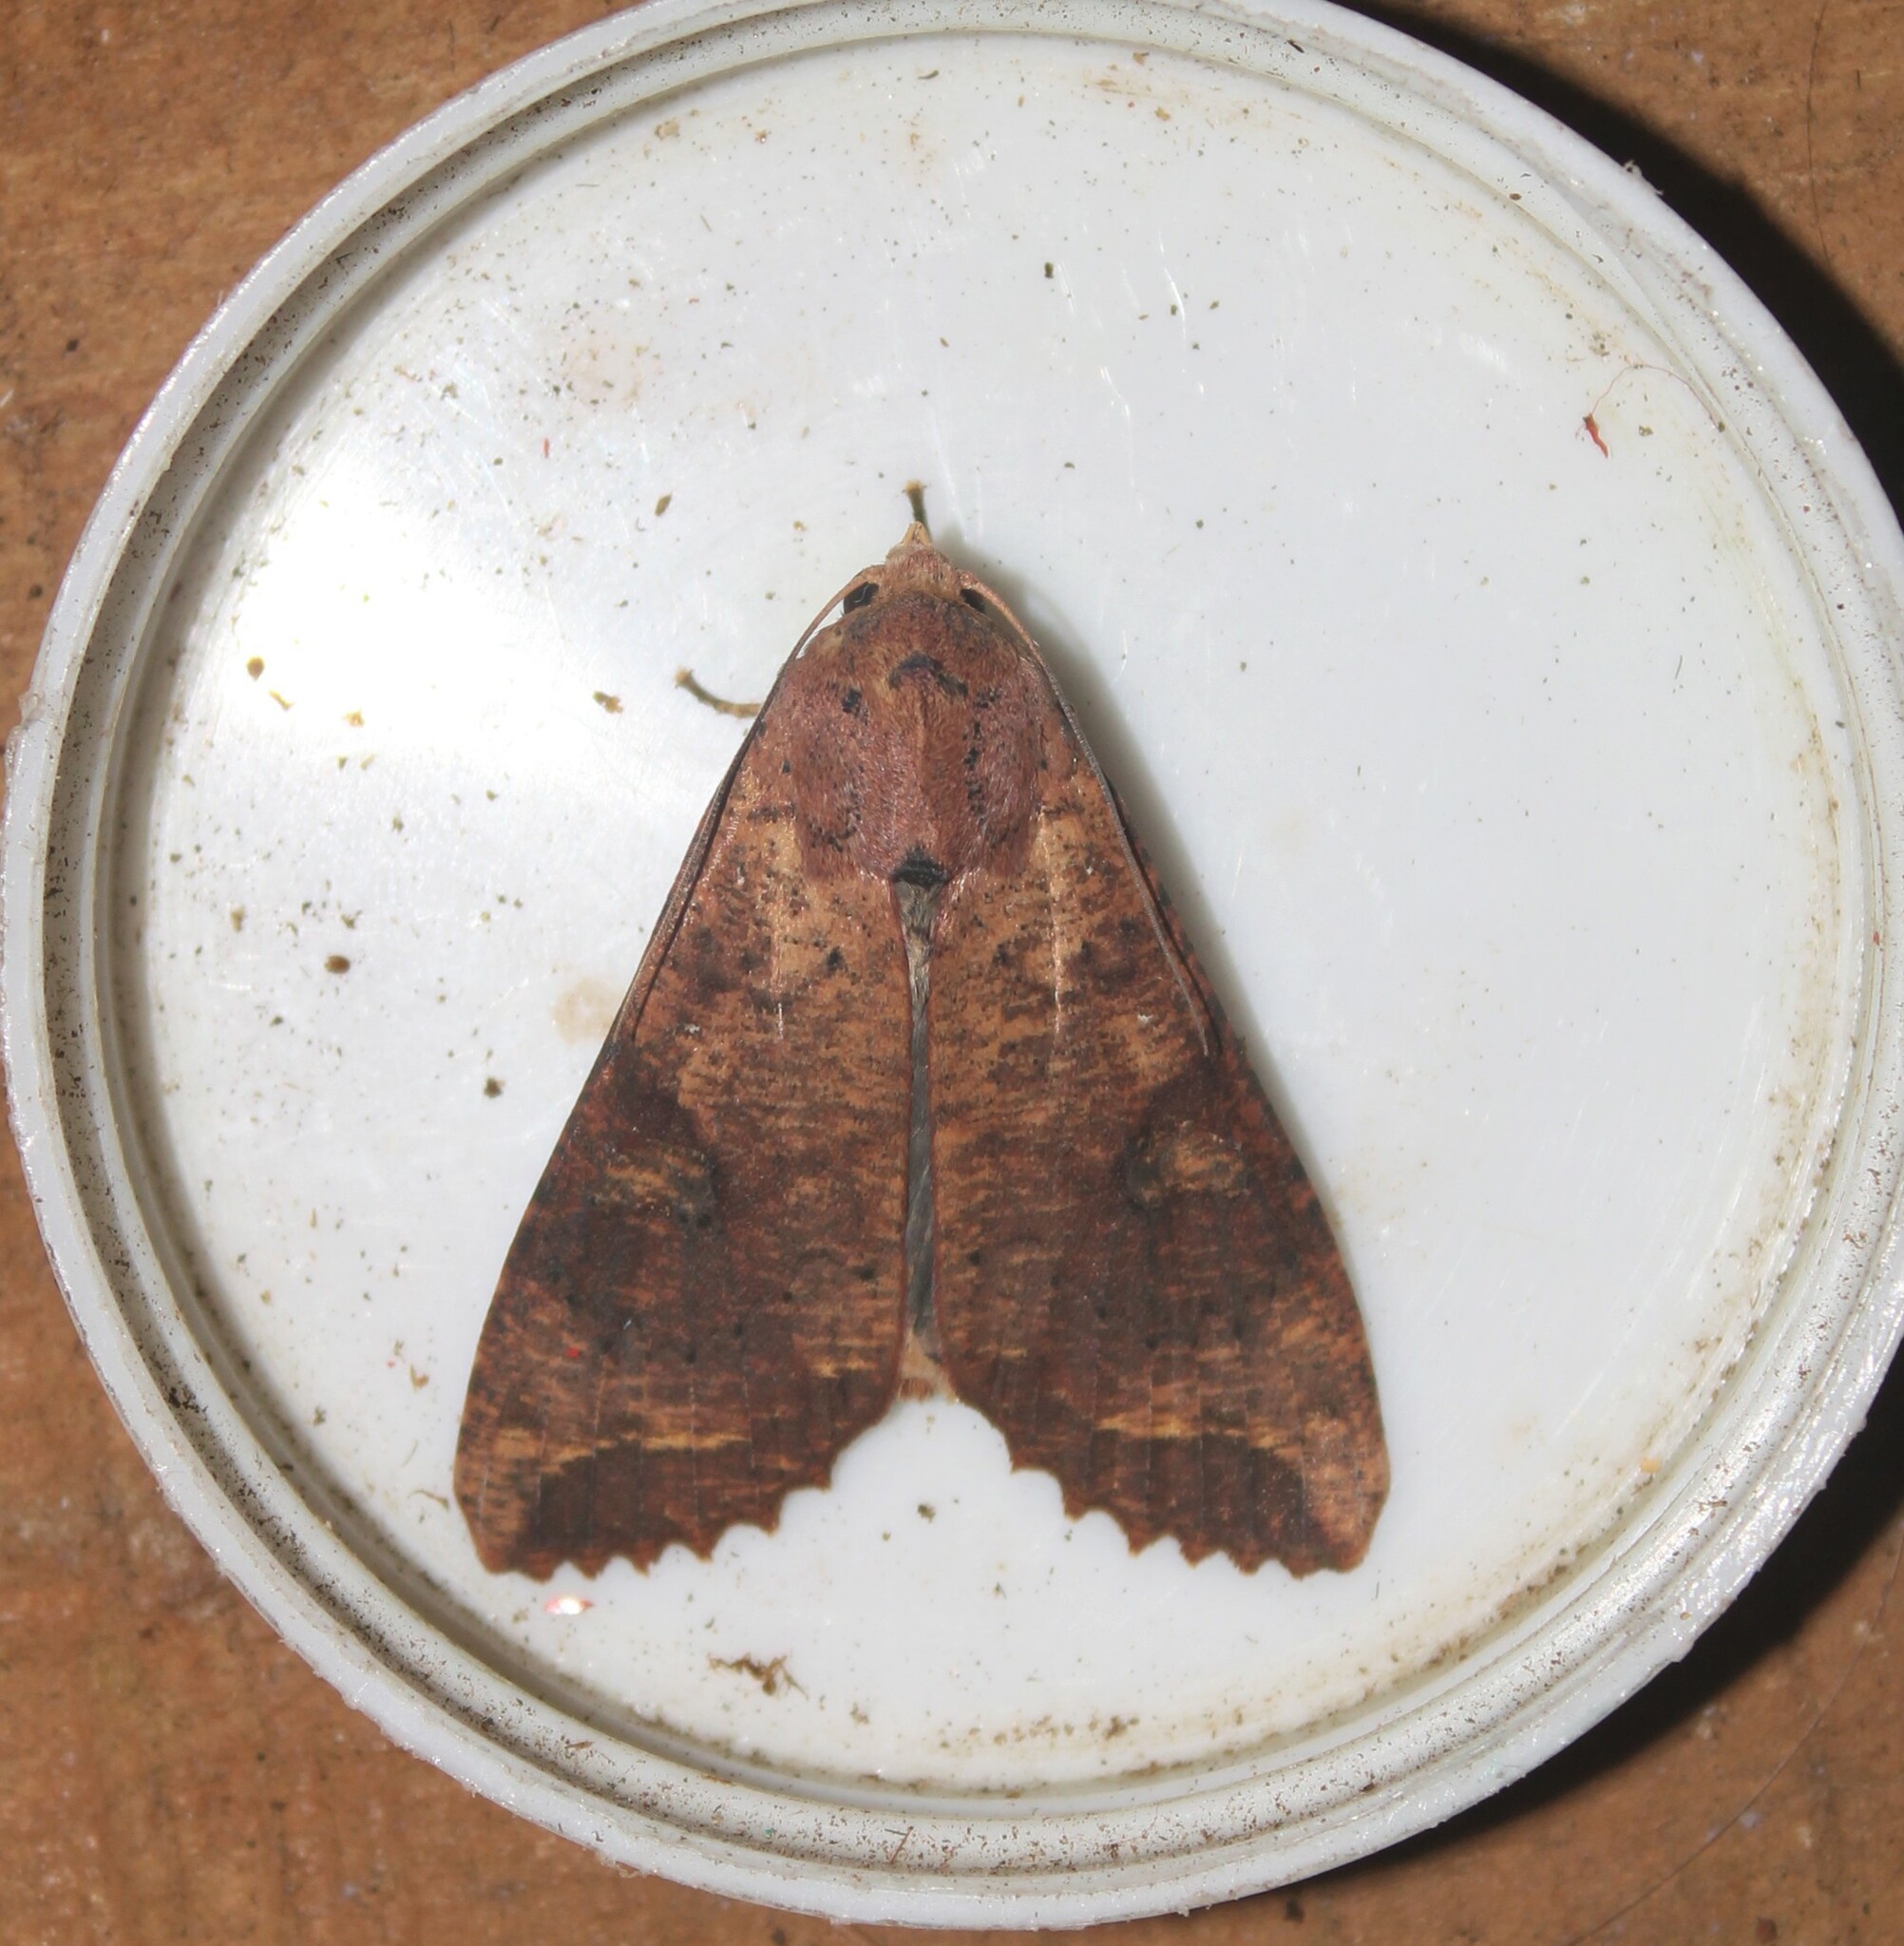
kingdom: Animalia
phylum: Arthropoda
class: Insecta
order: Lepidoptera
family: Noctuidae
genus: Tiracola
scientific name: Tiracola plagiata
